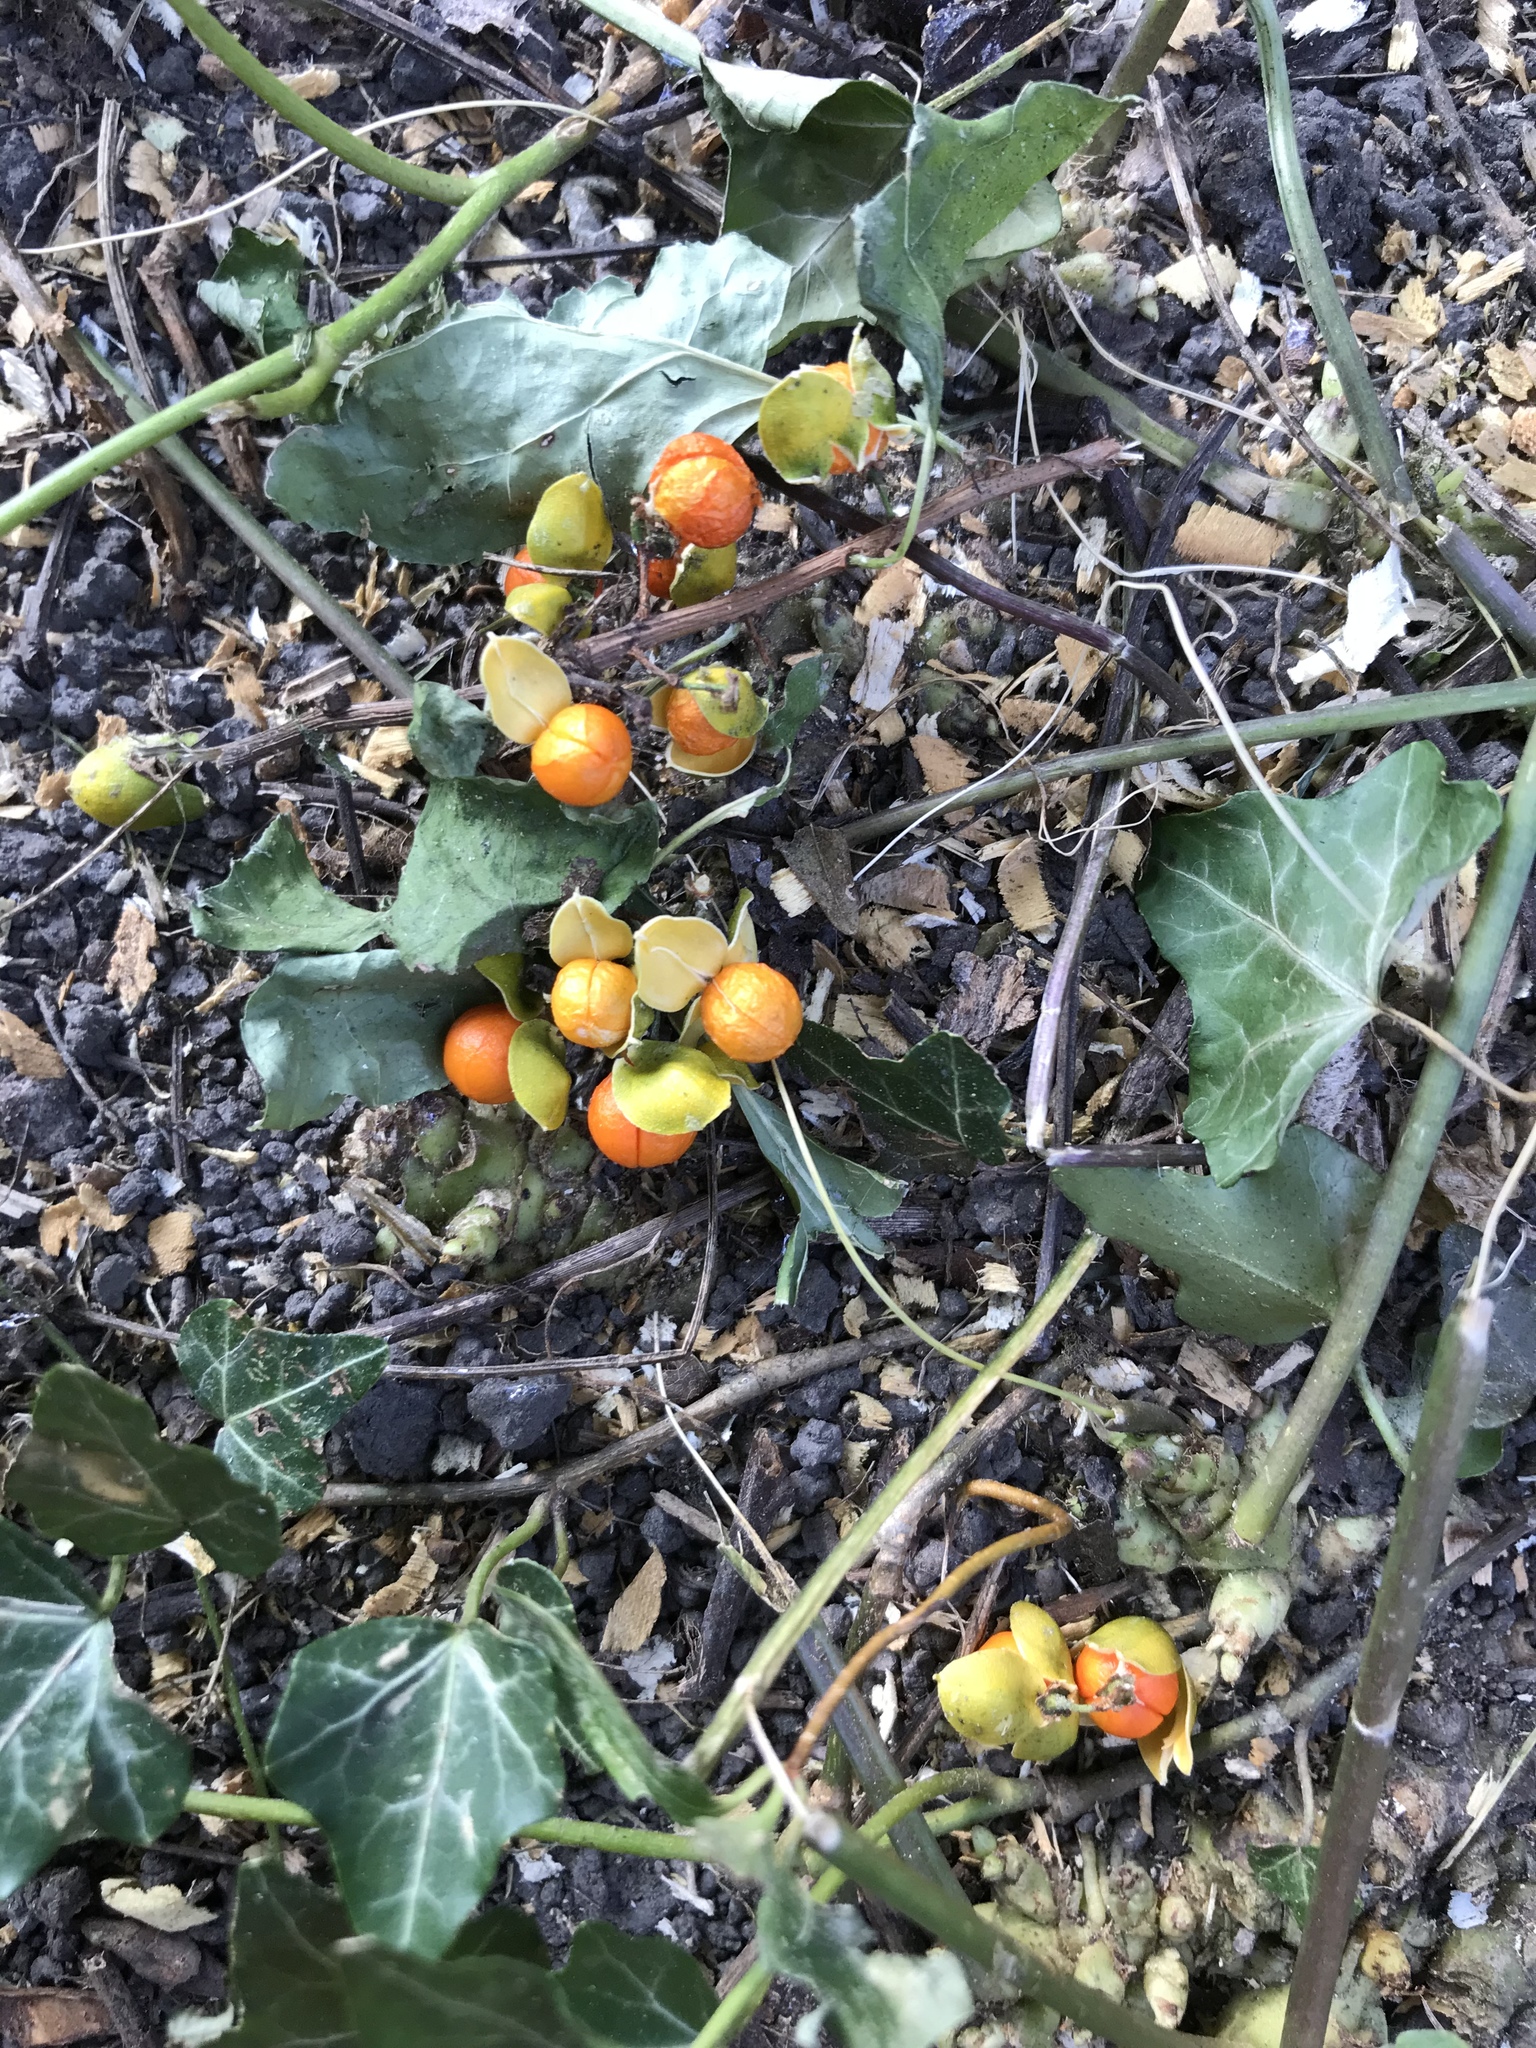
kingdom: Plantae
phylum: Tracheophyta
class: Magnoliopsida
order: Celastrales
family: Celastraceae
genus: Celastrus
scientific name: Celastrus orbiculatus
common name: Oriental bittersweet
